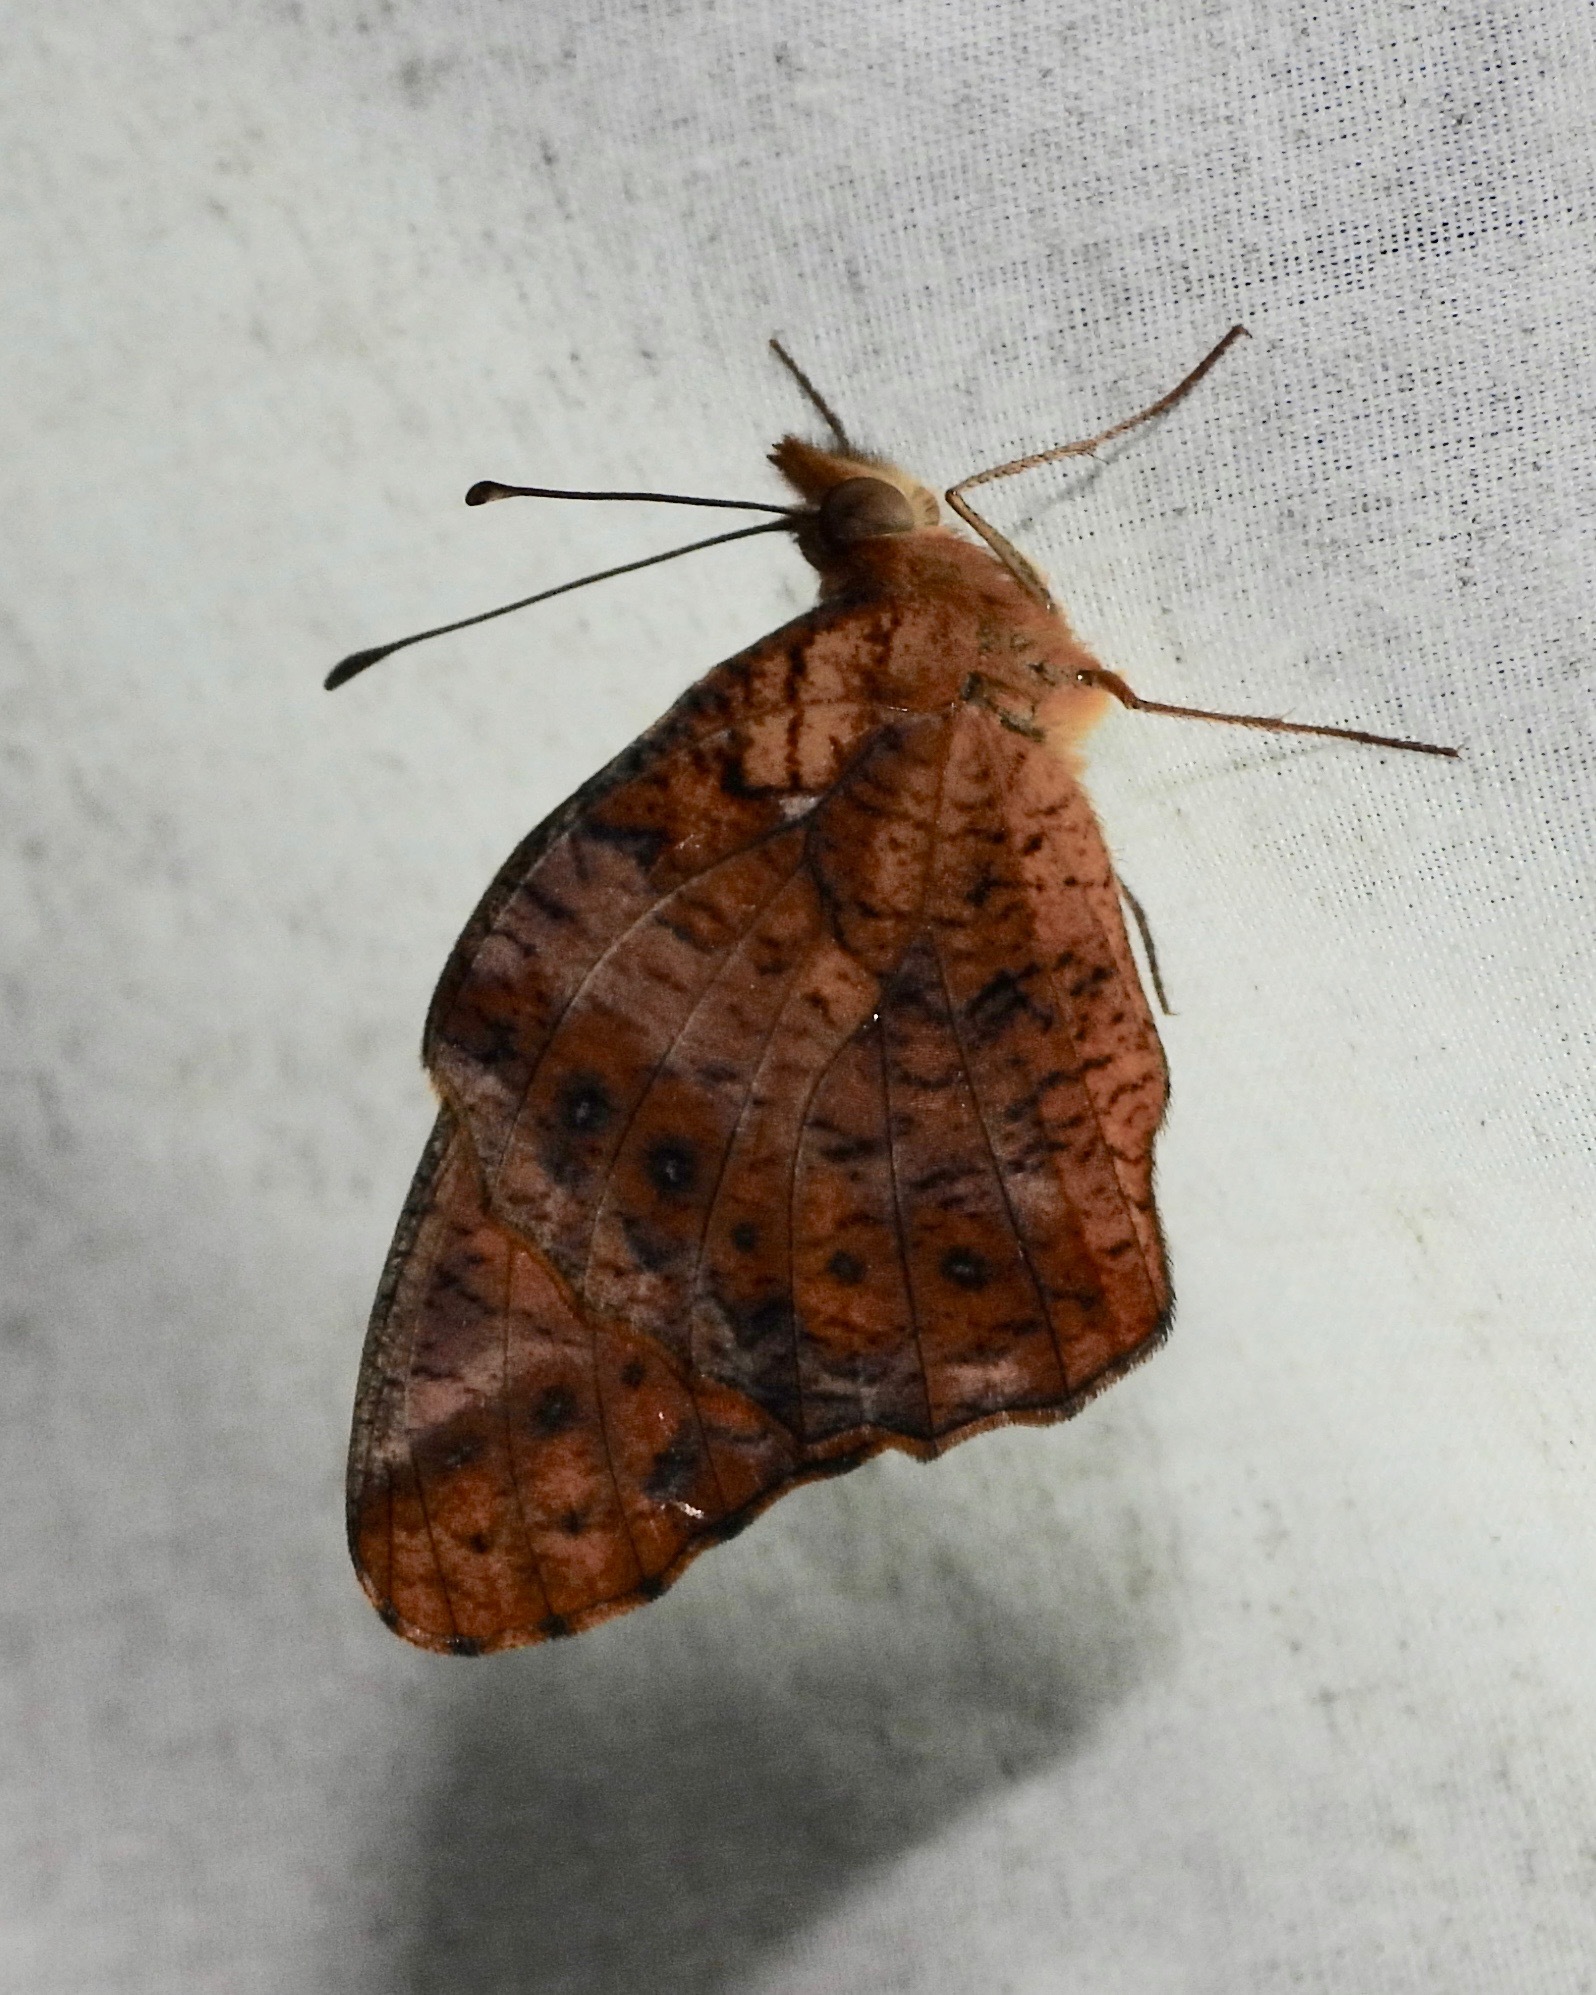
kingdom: Animalia
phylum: Arthropoda
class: Insecta
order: Lepidoptera
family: Nymphalidae
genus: Euptoieta
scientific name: Euptoieta hegesia
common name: Mexican fritillary
